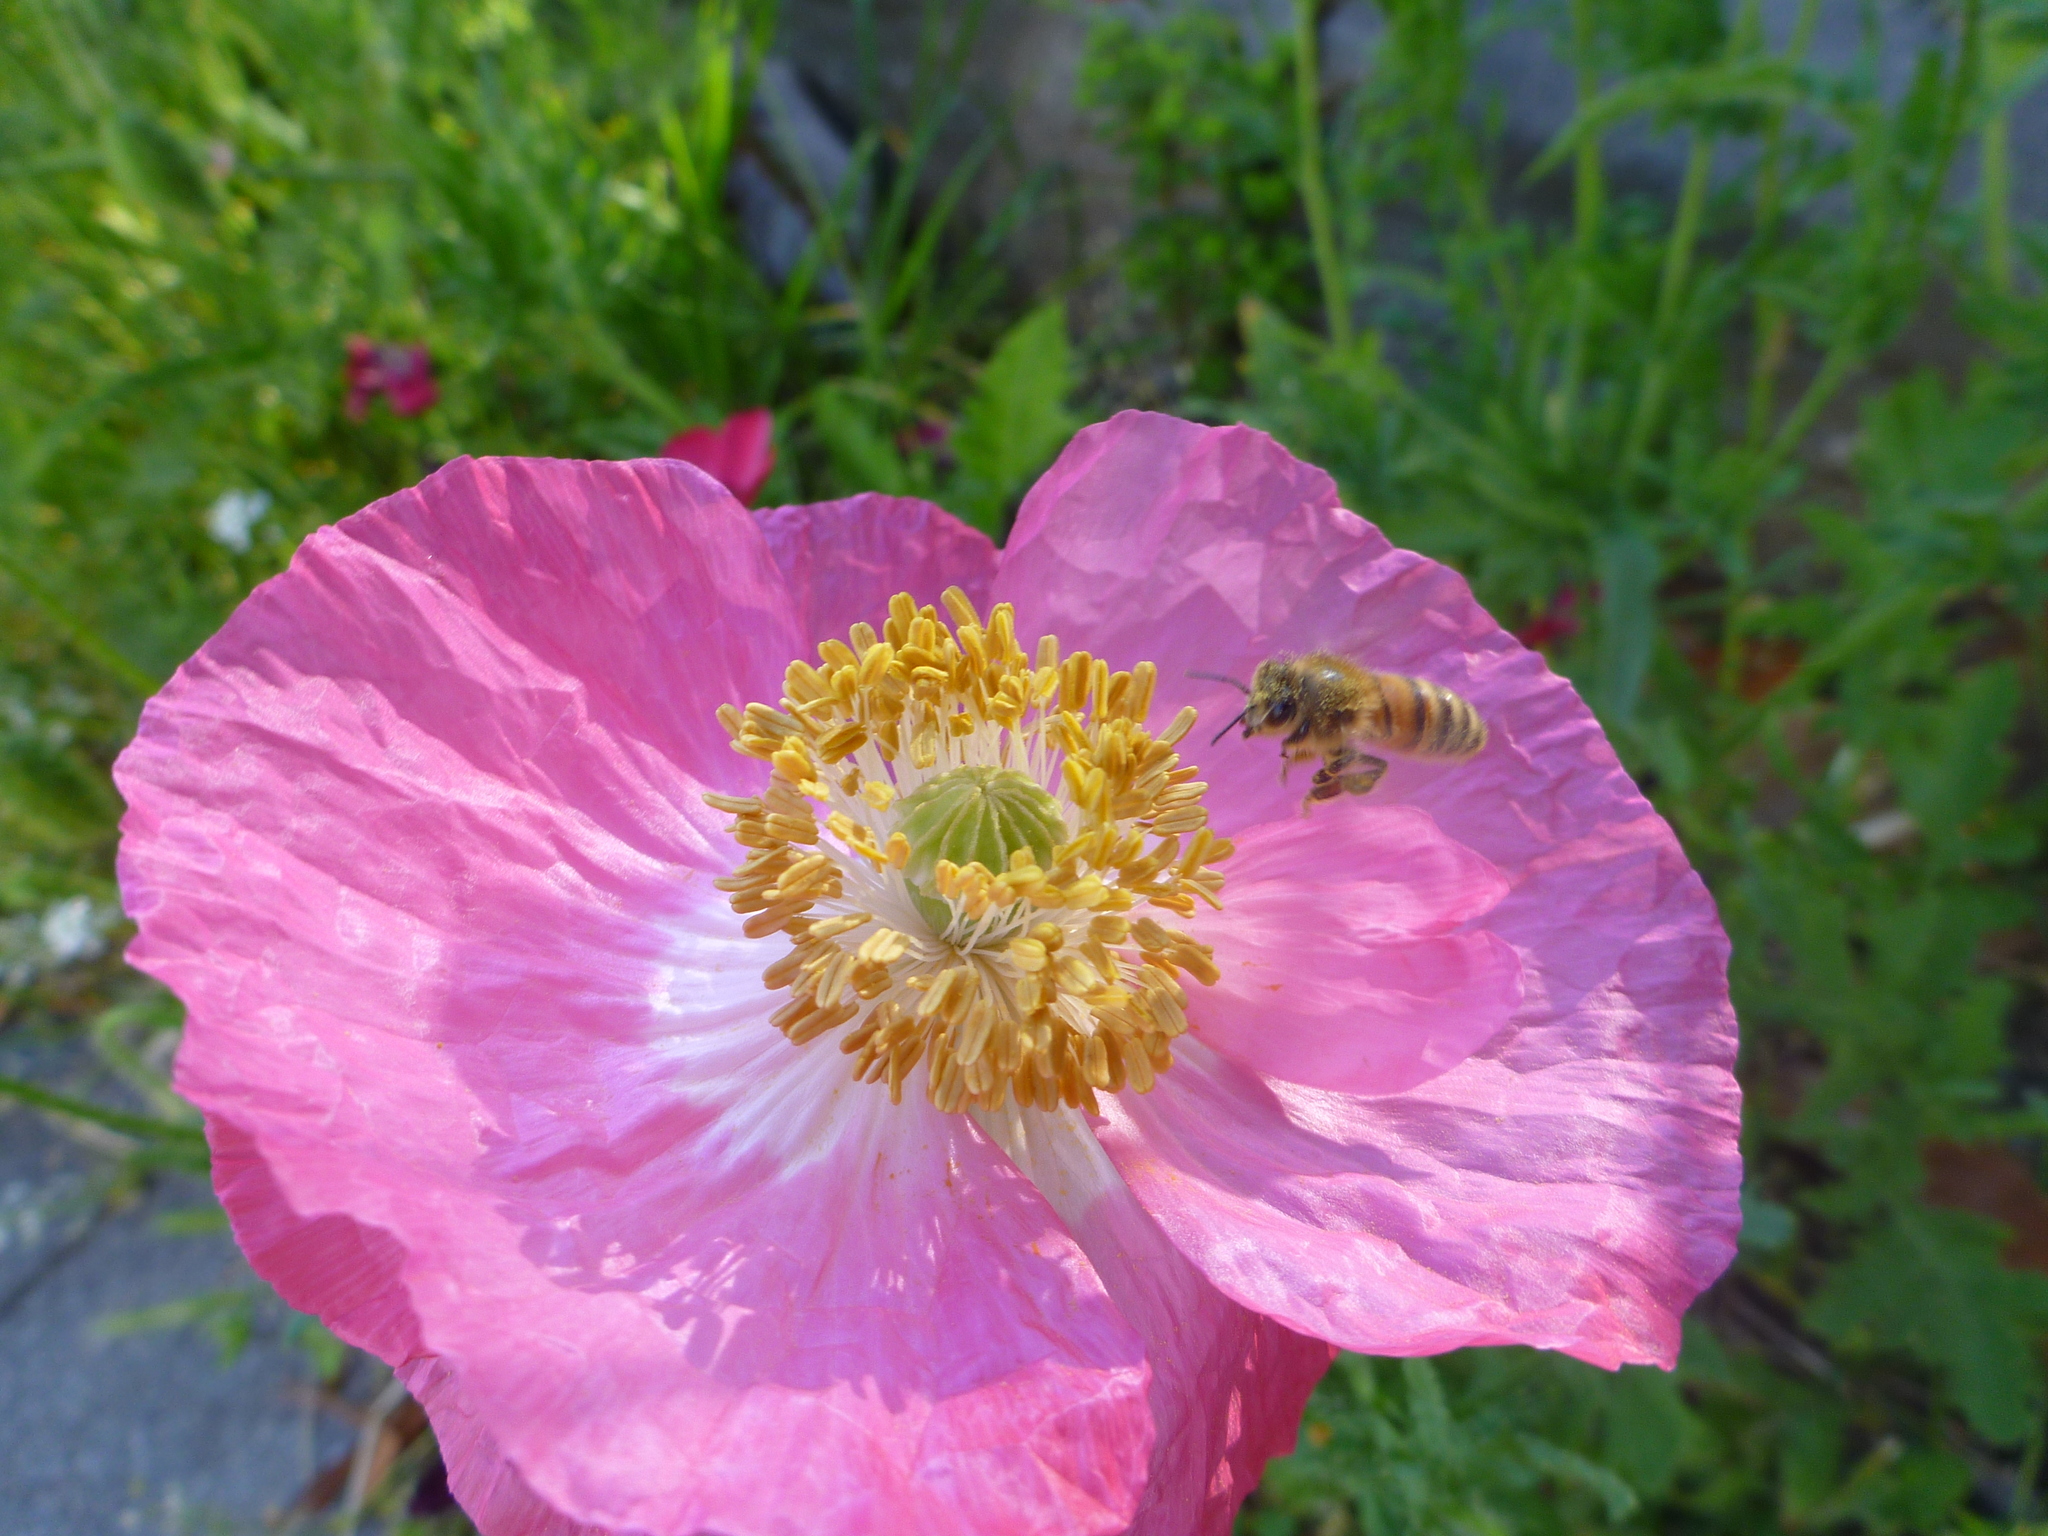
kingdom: Animalia
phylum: Arthropoda
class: Insecta
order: Hymenoptera
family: Apidae
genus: Apis
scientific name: Apis mellifera
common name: Honey bee
